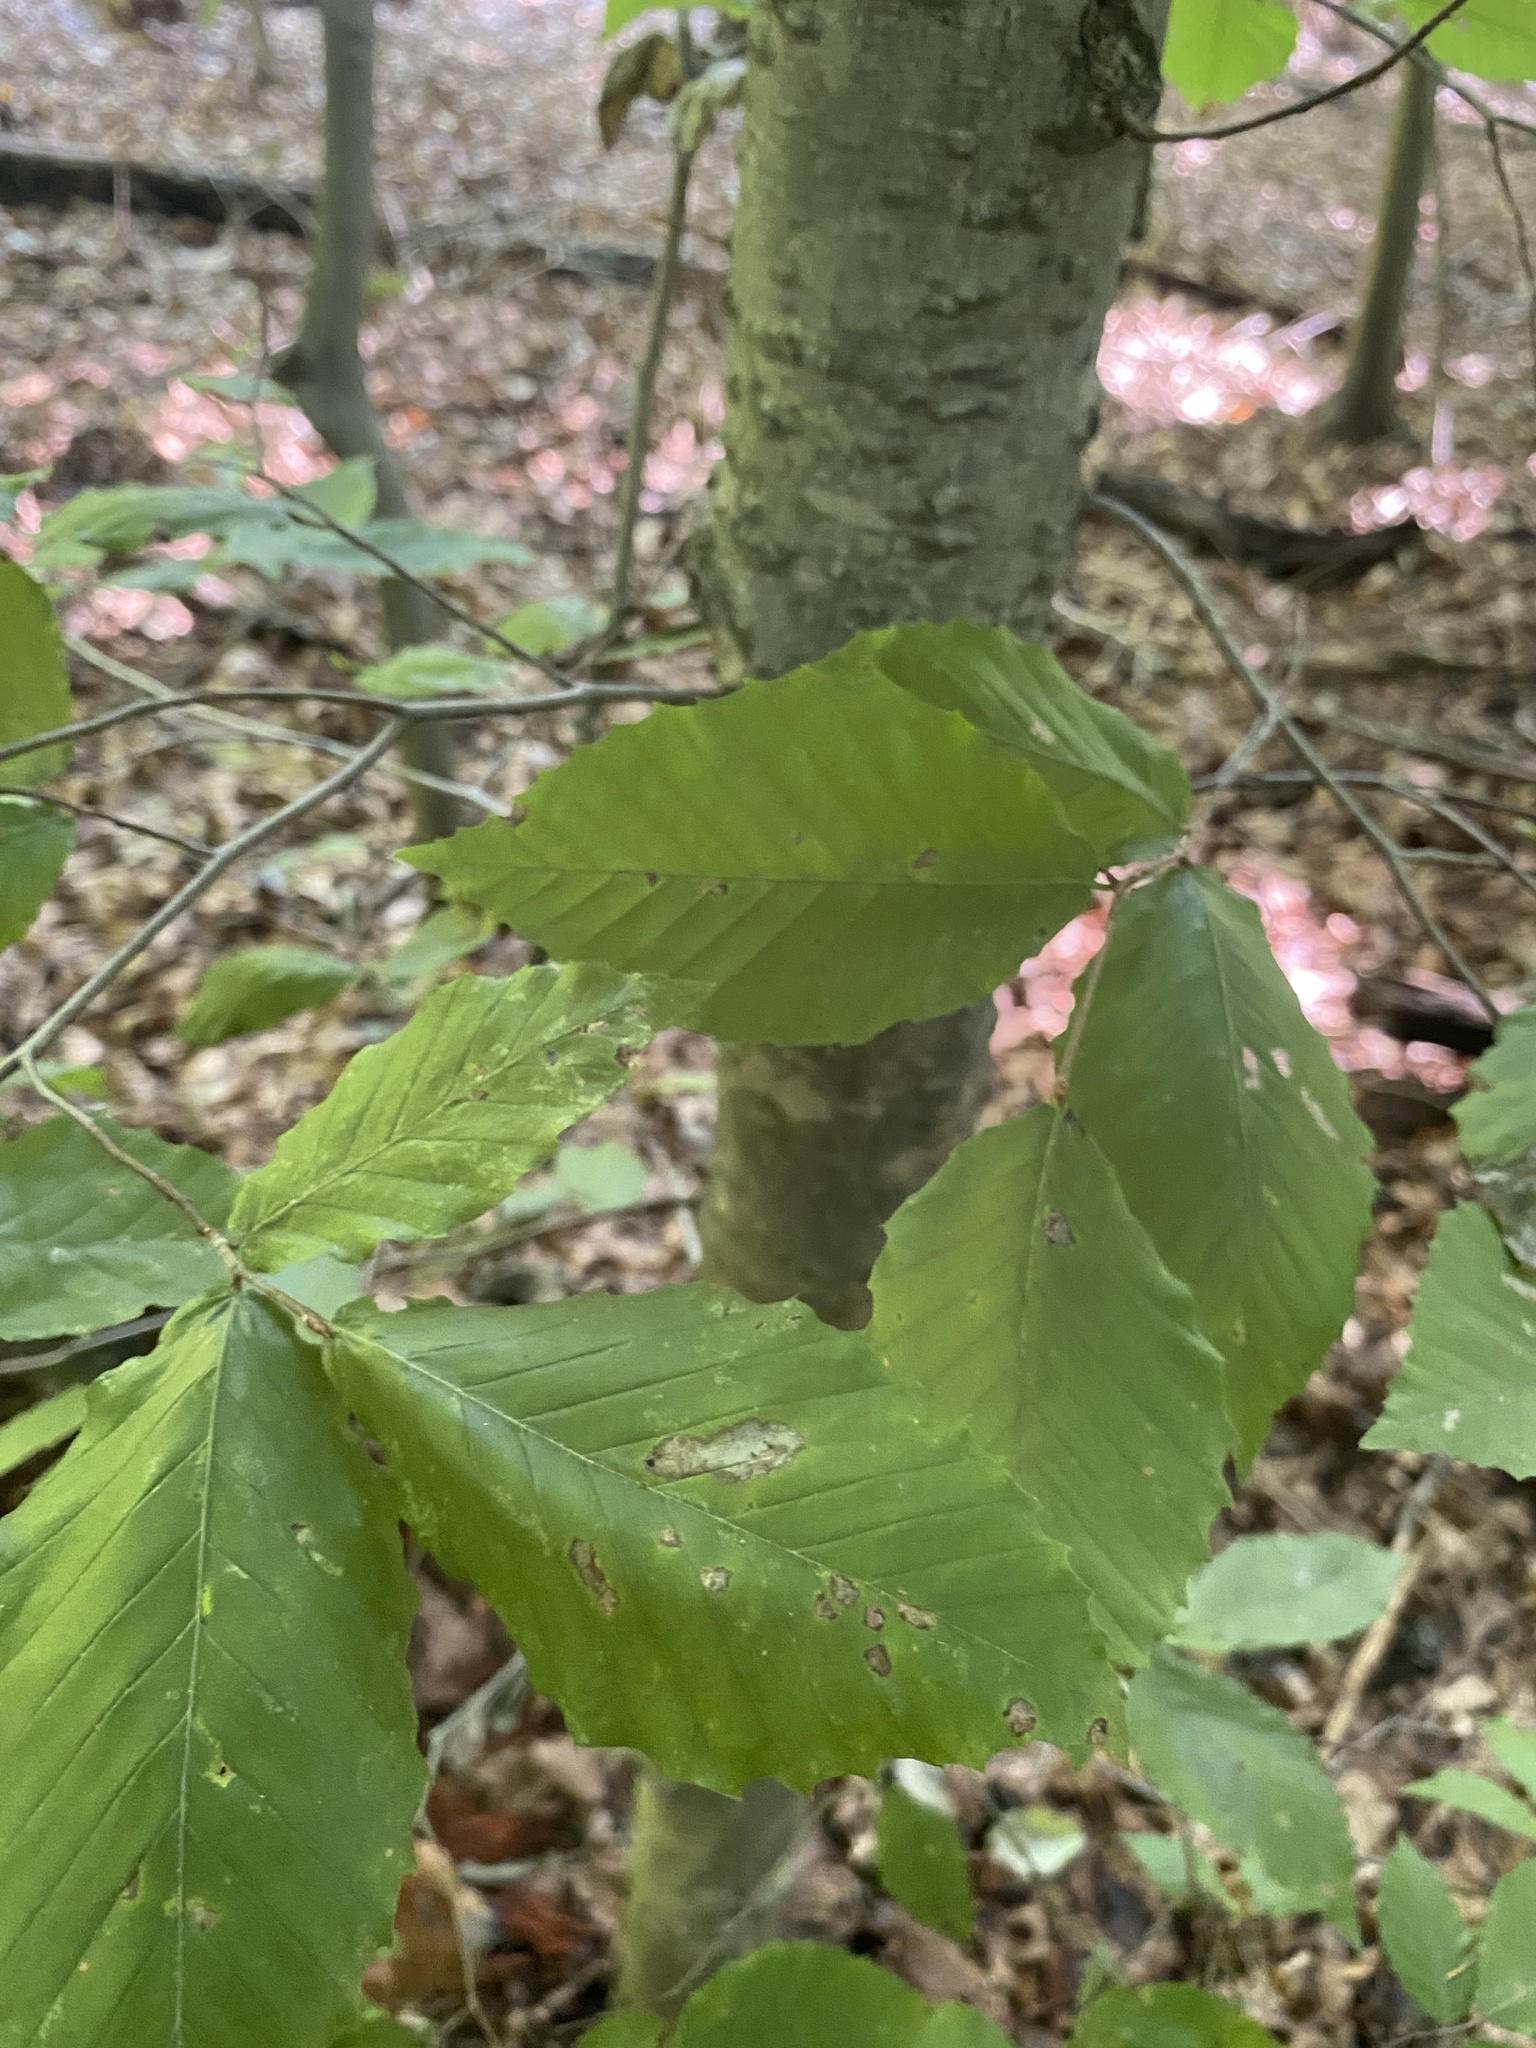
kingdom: Plantae
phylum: Tracheophyta
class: Magnoliopsida
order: Fagales
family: Fagaceae
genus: Fagus
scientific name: Fagus grandifolia
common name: American beech
